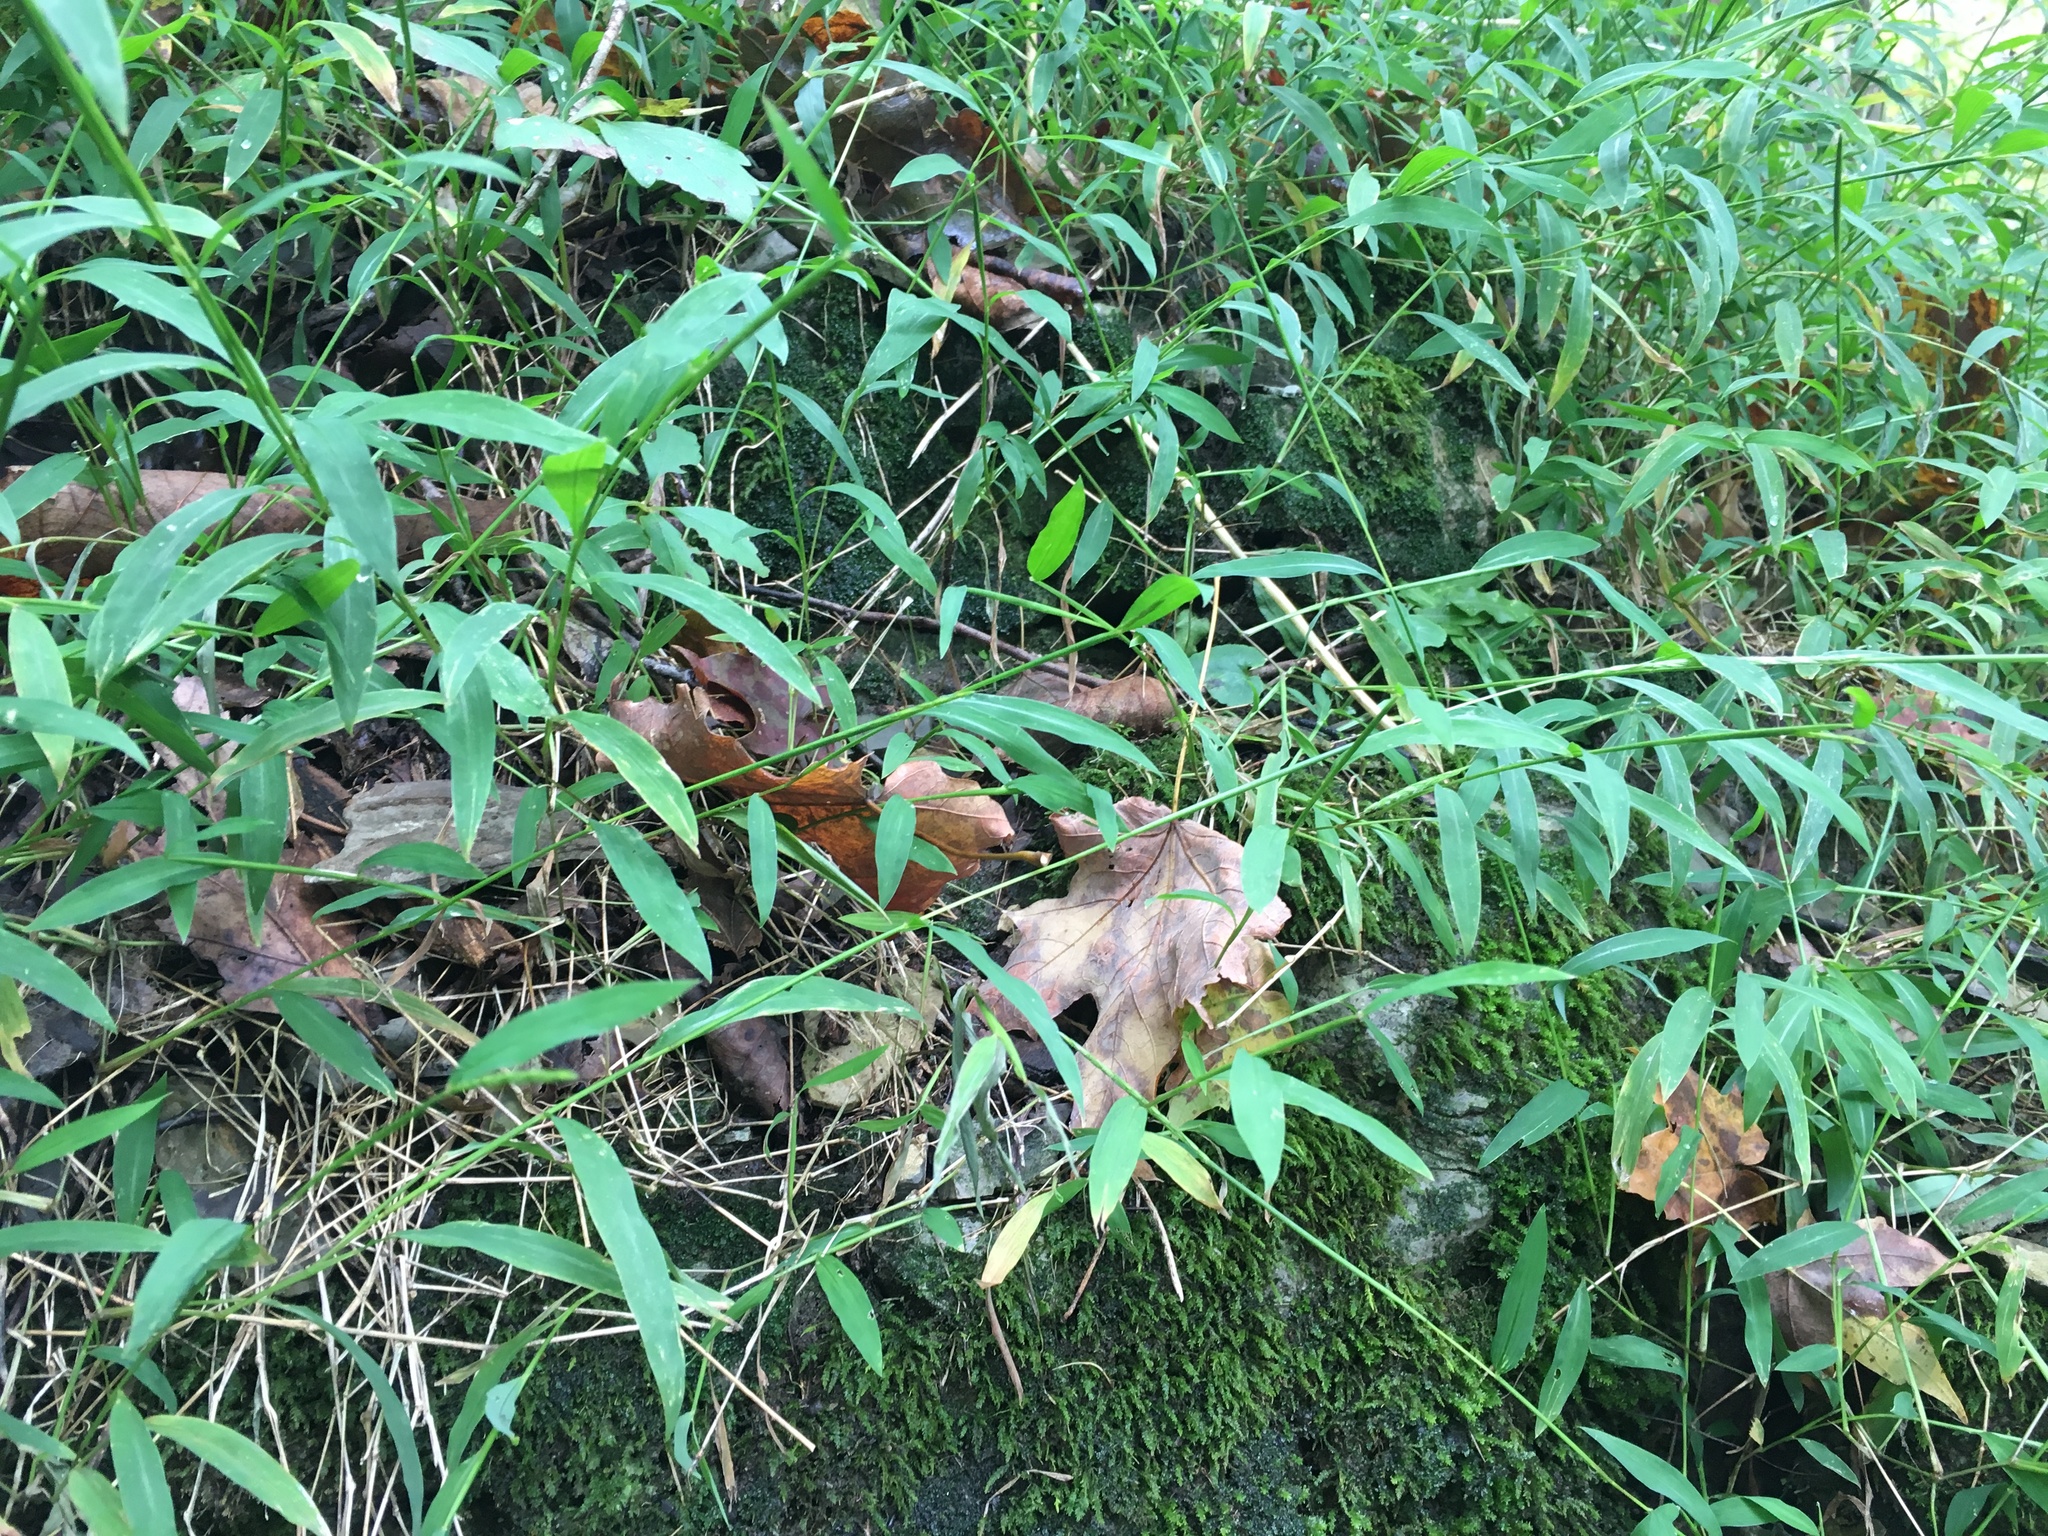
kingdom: Plantae
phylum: Tracheophyta
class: Liliopsida
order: Poales
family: Poaceae
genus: Microstegium
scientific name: Microstegium vimineum
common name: Japanese stiltgrass
